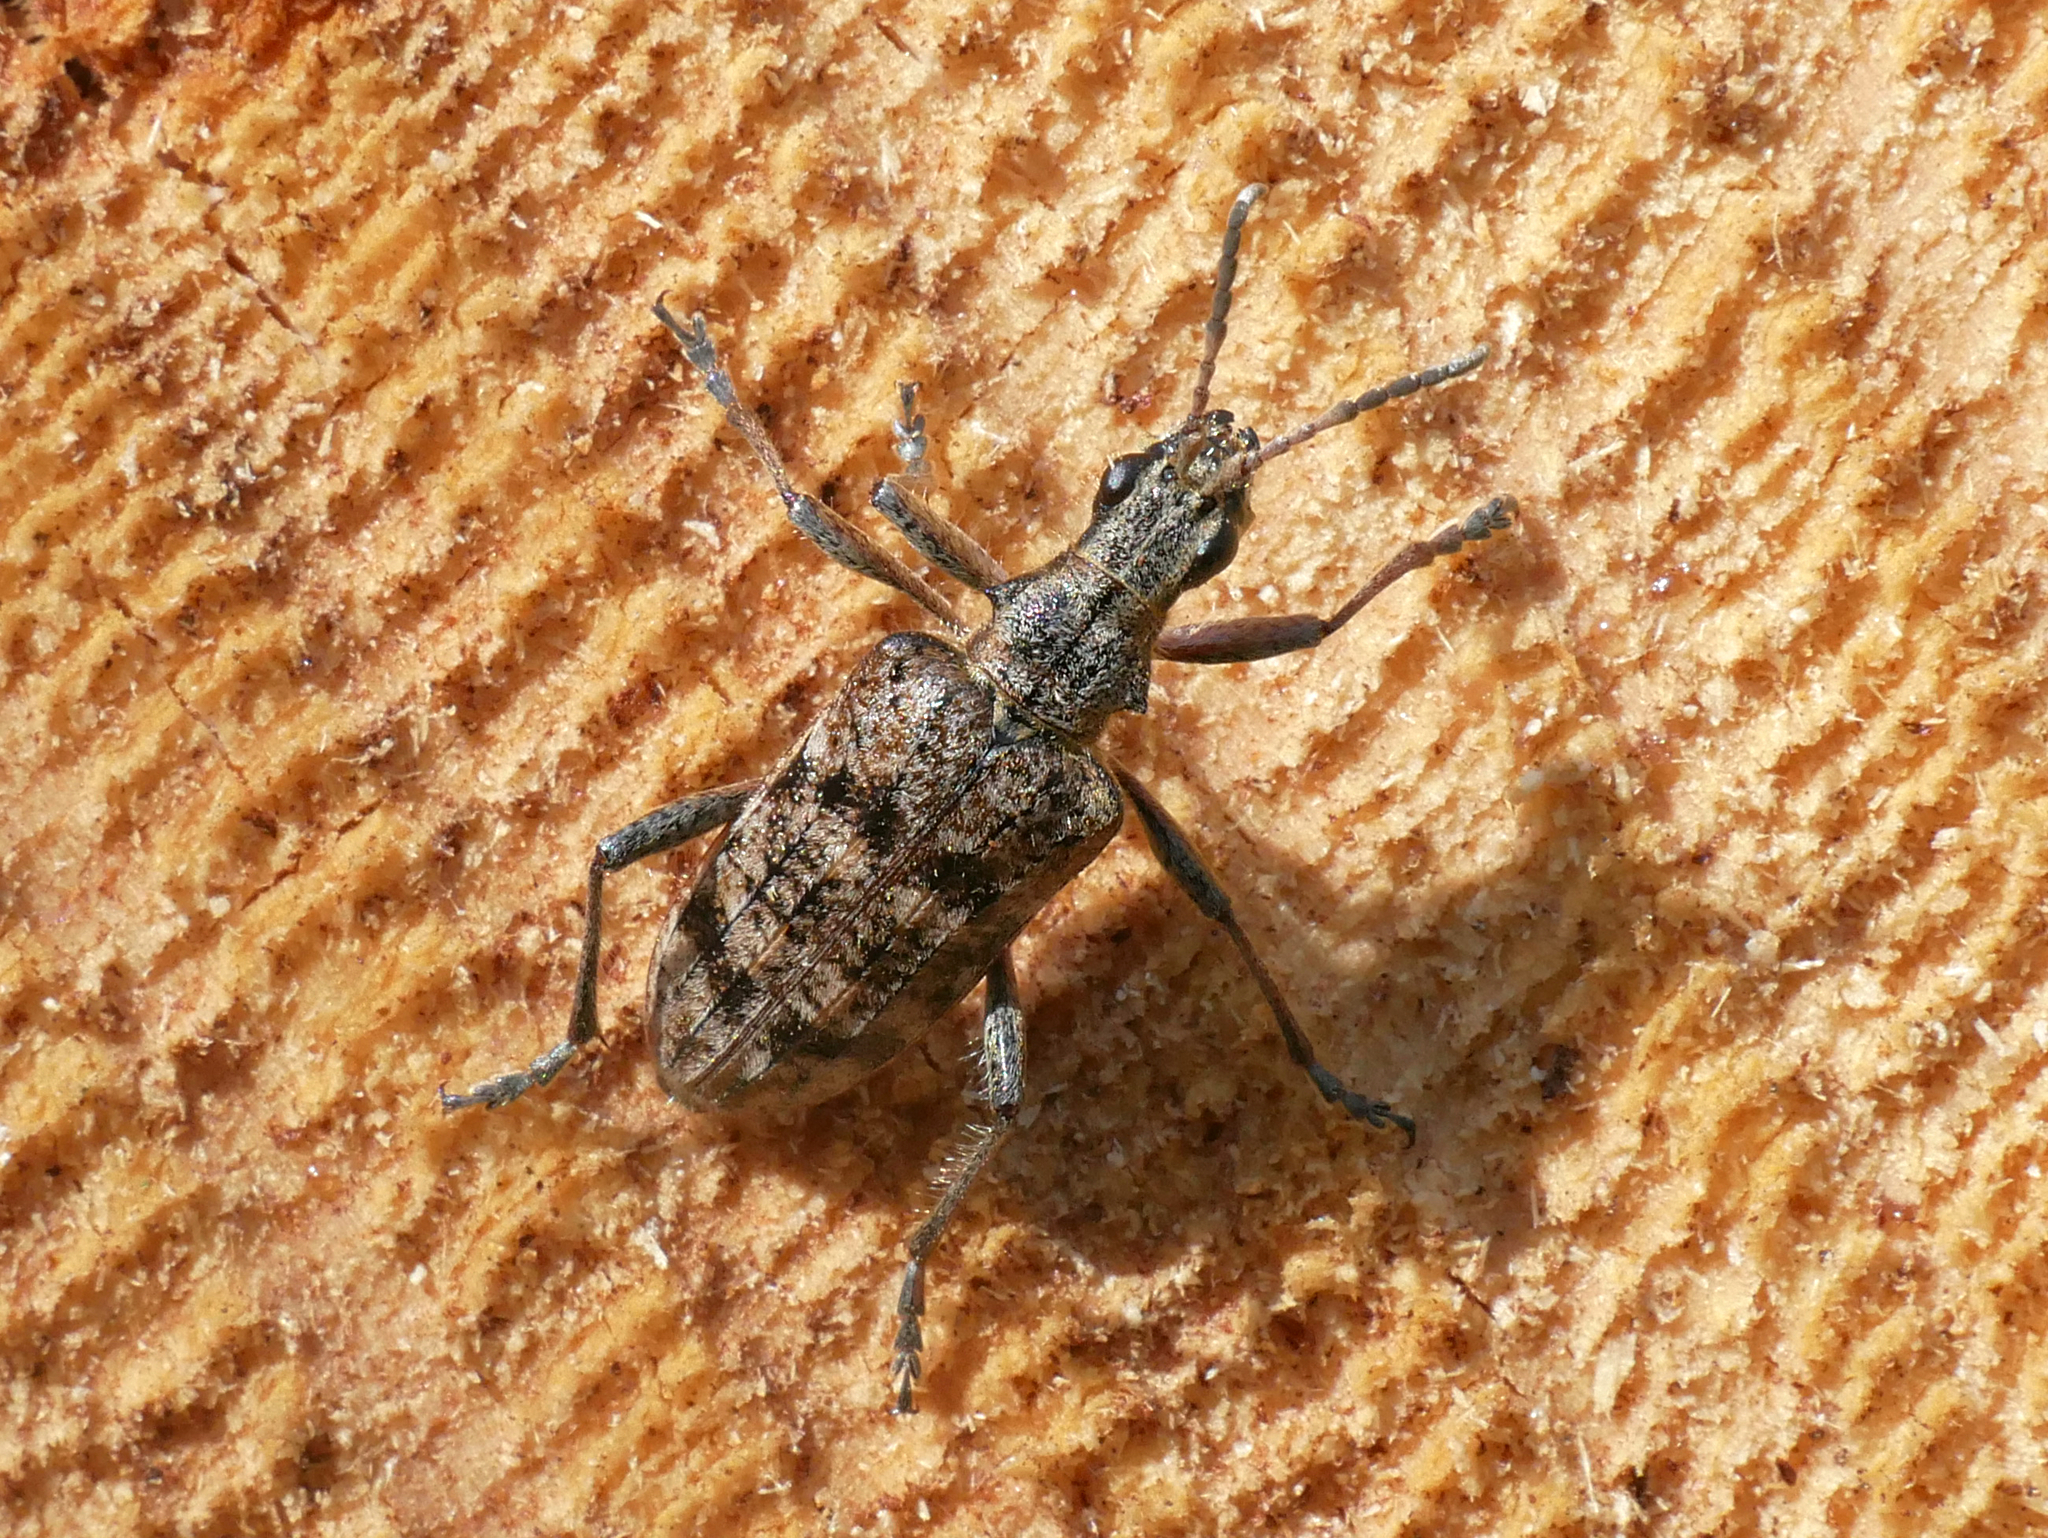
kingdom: Animalia
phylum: Arthropoda
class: Insecta
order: Coleoptera
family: Cerambycidae
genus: Rhagium
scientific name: Rhagium inquisitor
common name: Ribbed pine borer
